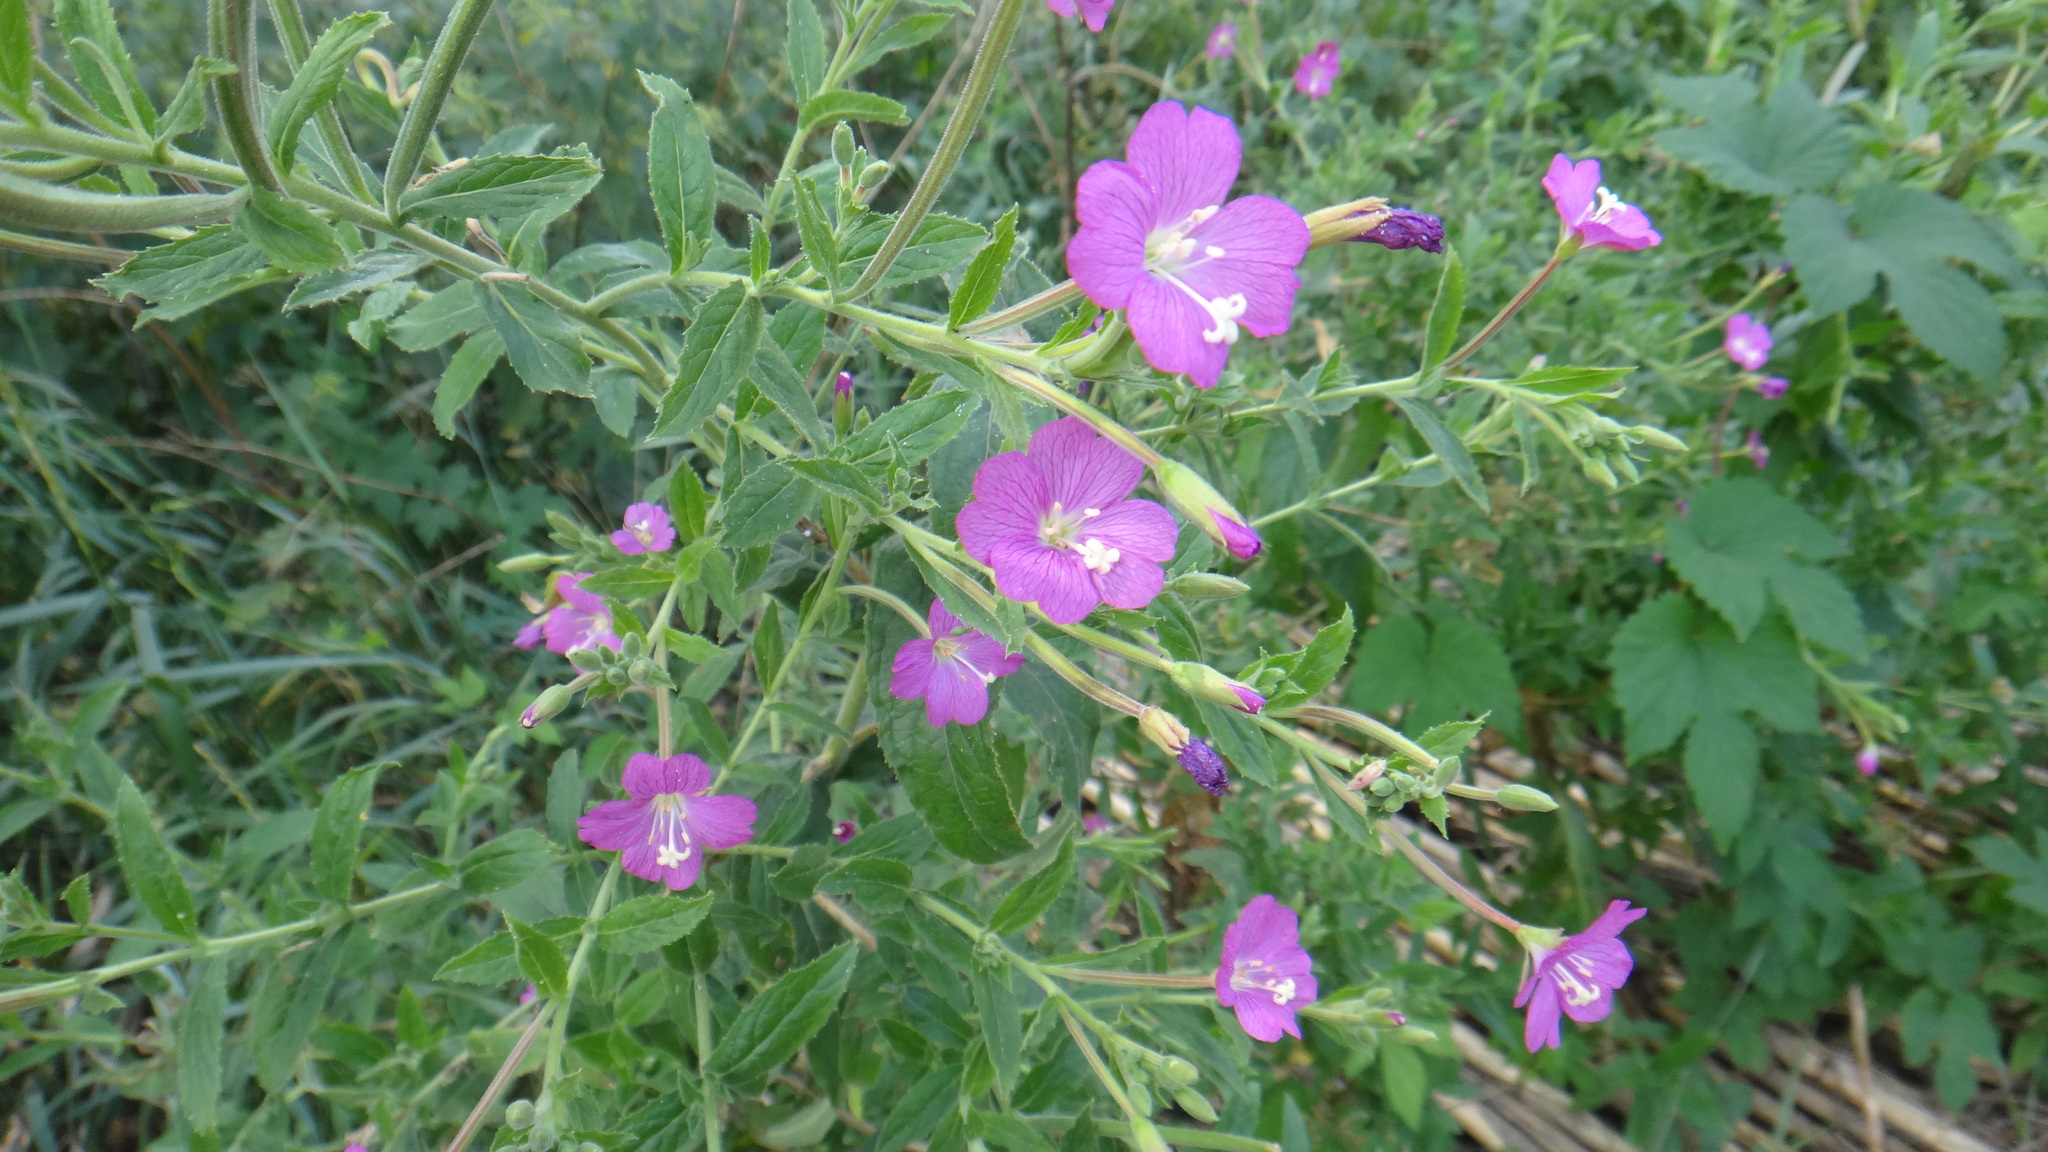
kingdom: Plantae
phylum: Tracheophyta
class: Magnoliopsida
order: Myrtales
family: Onagraceae
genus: Epilobium
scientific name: Epilobium hirsutum
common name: Great willowherb
